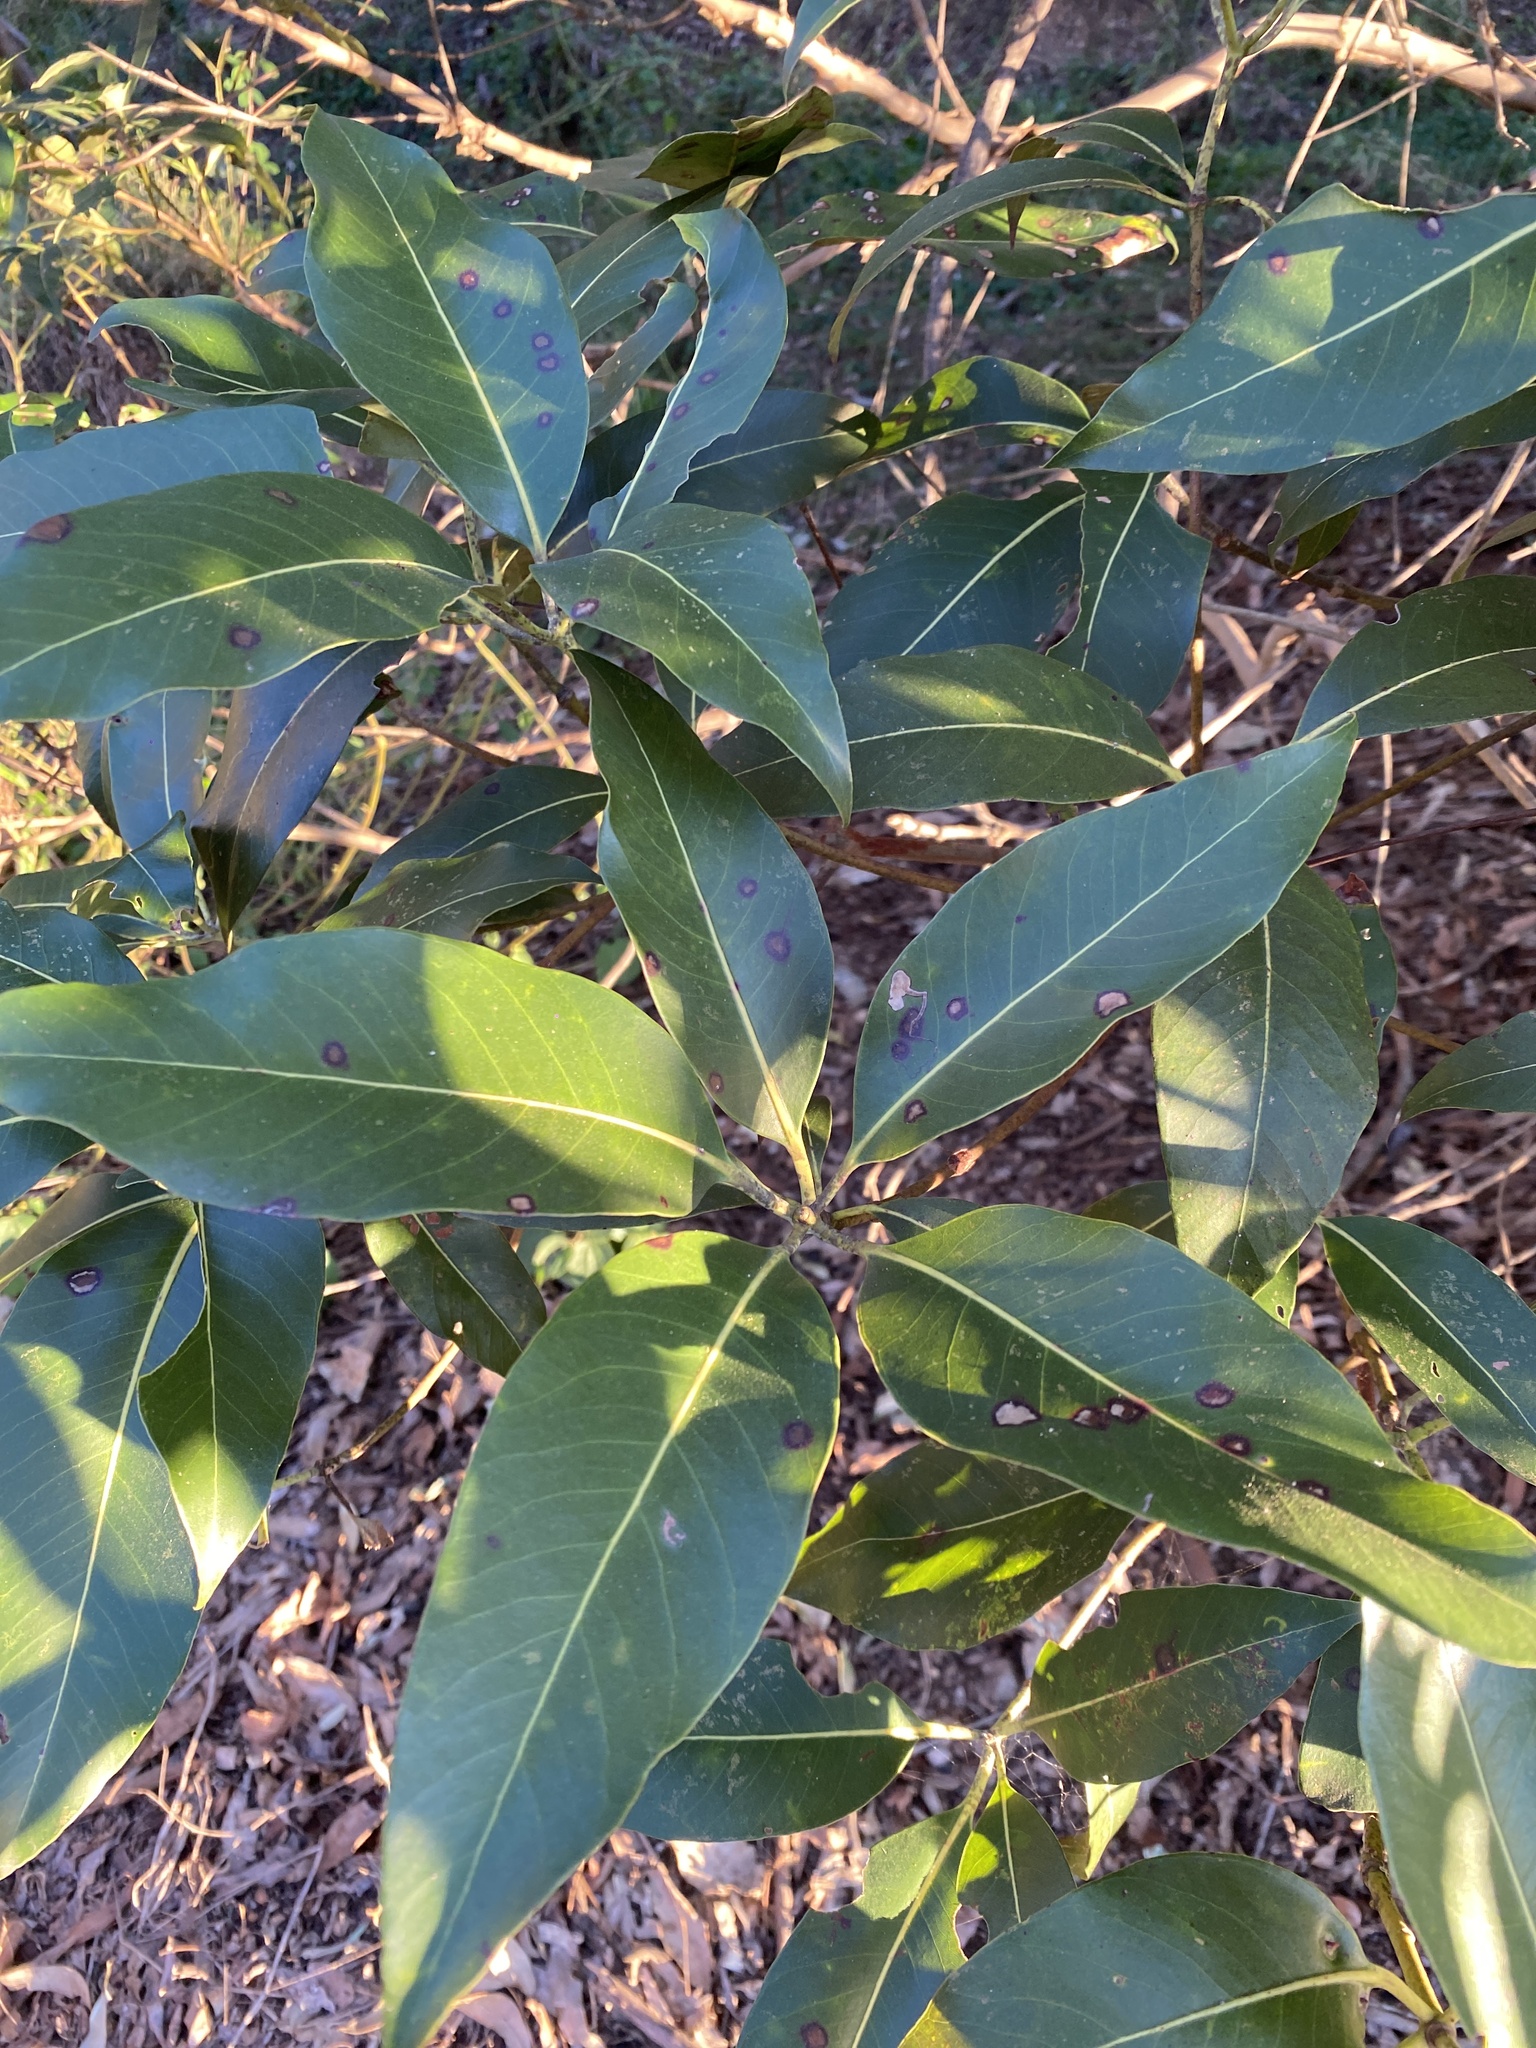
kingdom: Plantae
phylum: Tracheophyta
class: Magnoliopsida
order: Myrtales
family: Myrtaceae
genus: Lophostemon
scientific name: Lophostemon confertus
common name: Brisbane box
